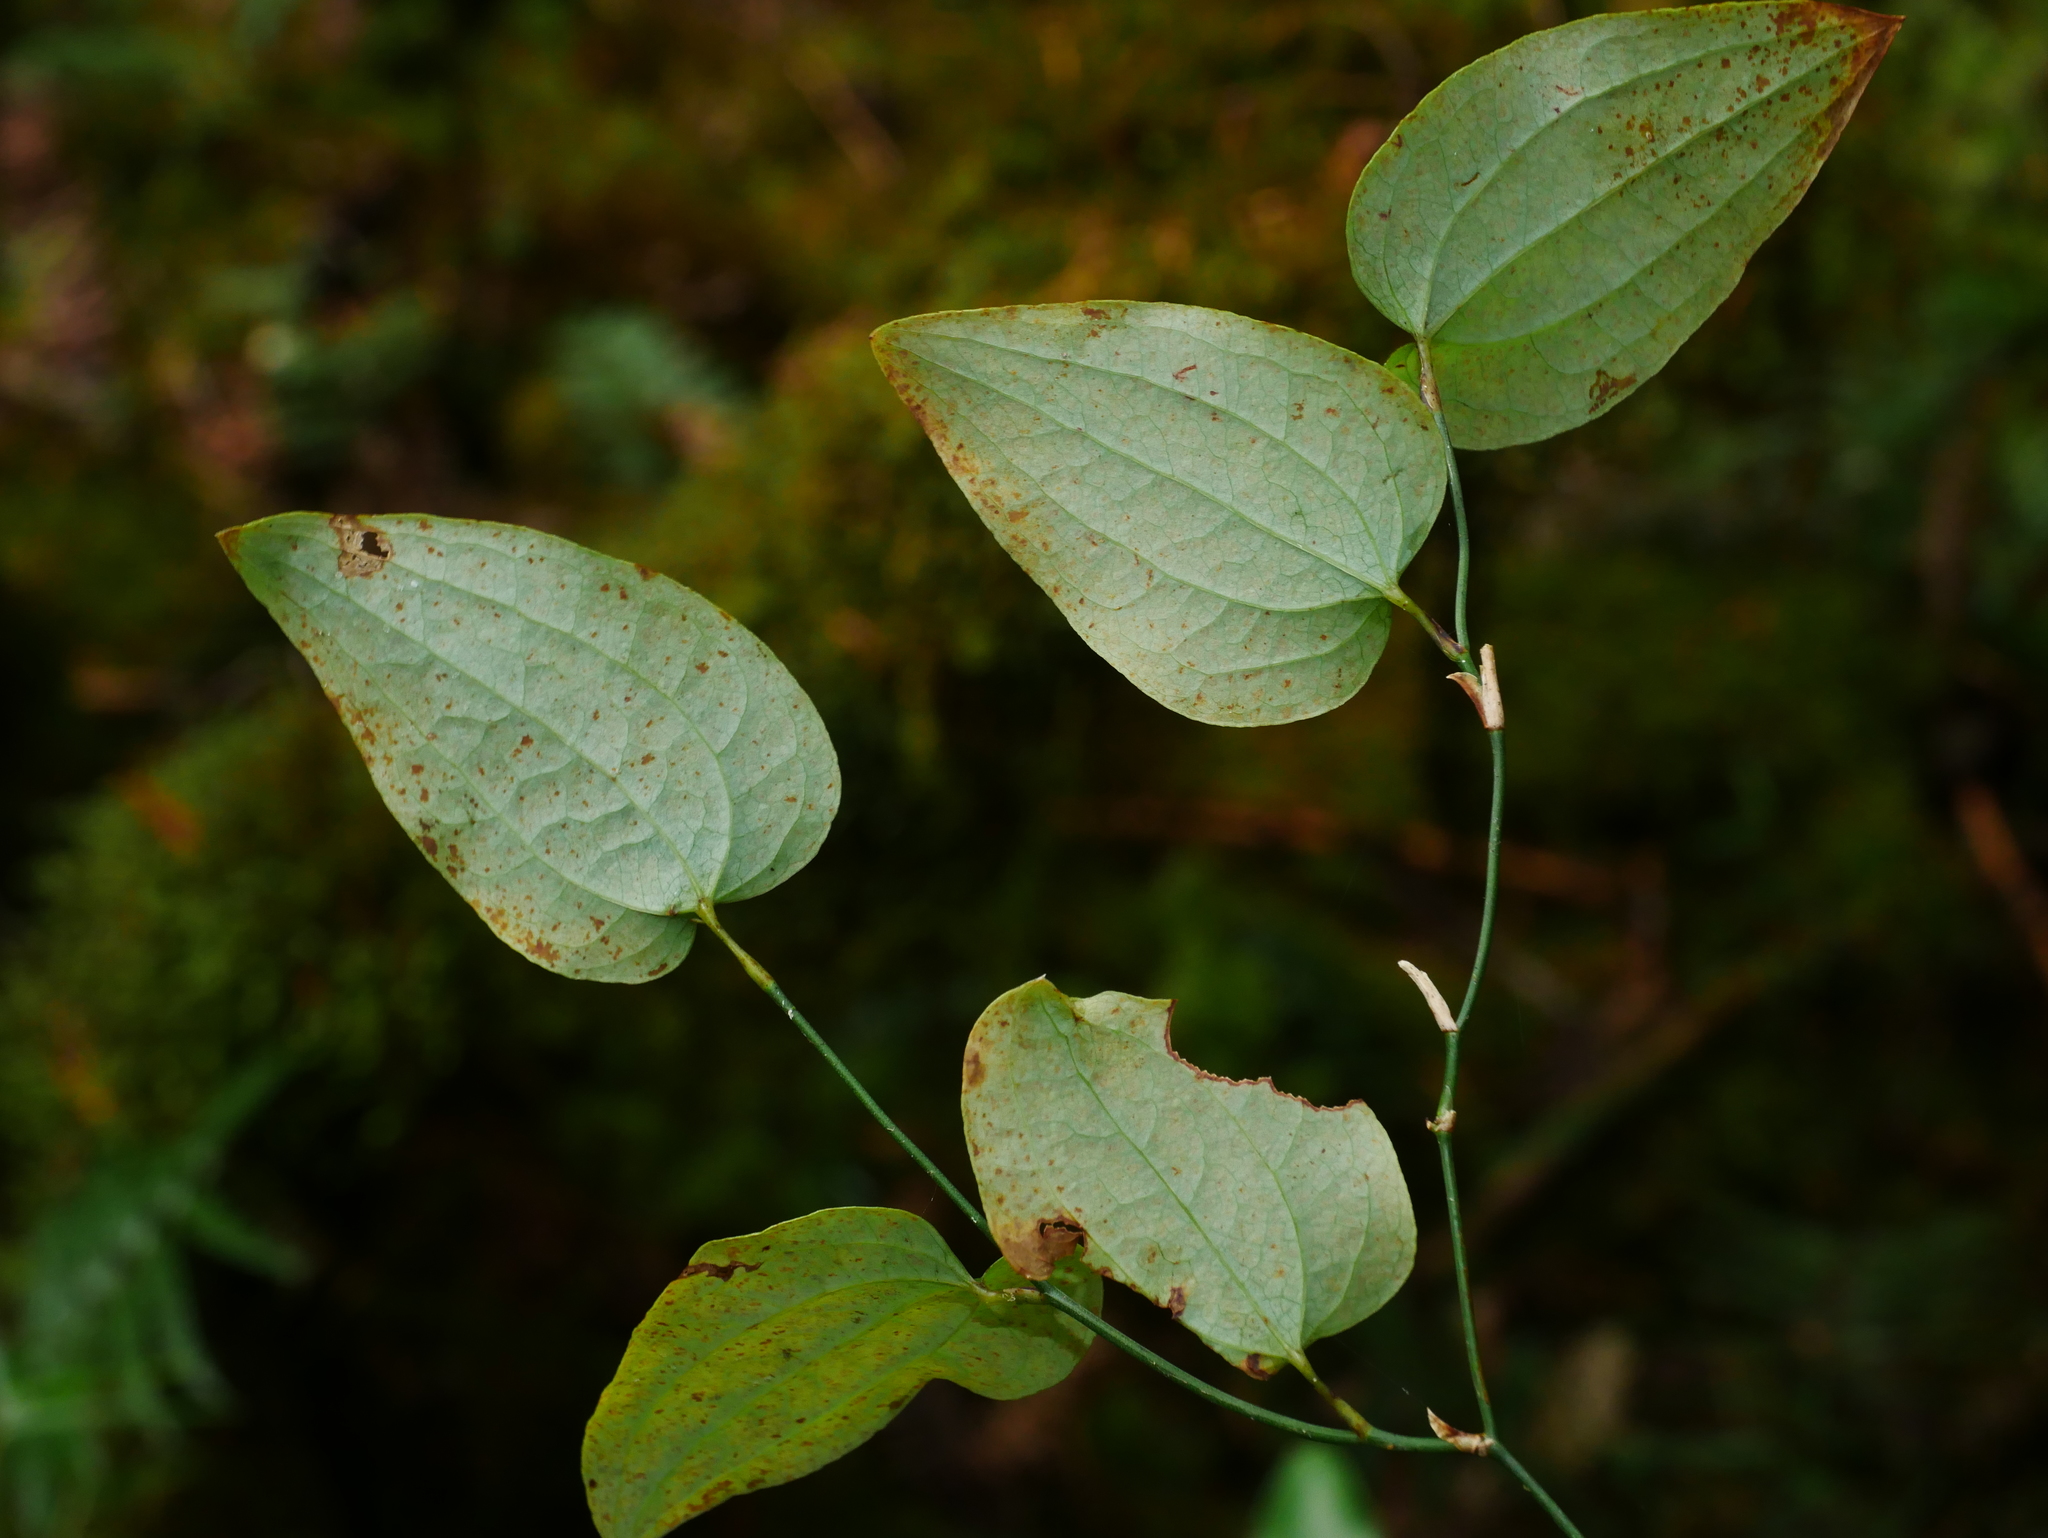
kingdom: Plantae
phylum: Tracheophyta
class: Liliopsida
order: Liliales
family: Smilacaceae
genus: Smilax
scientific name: Smilax menispermoidea
